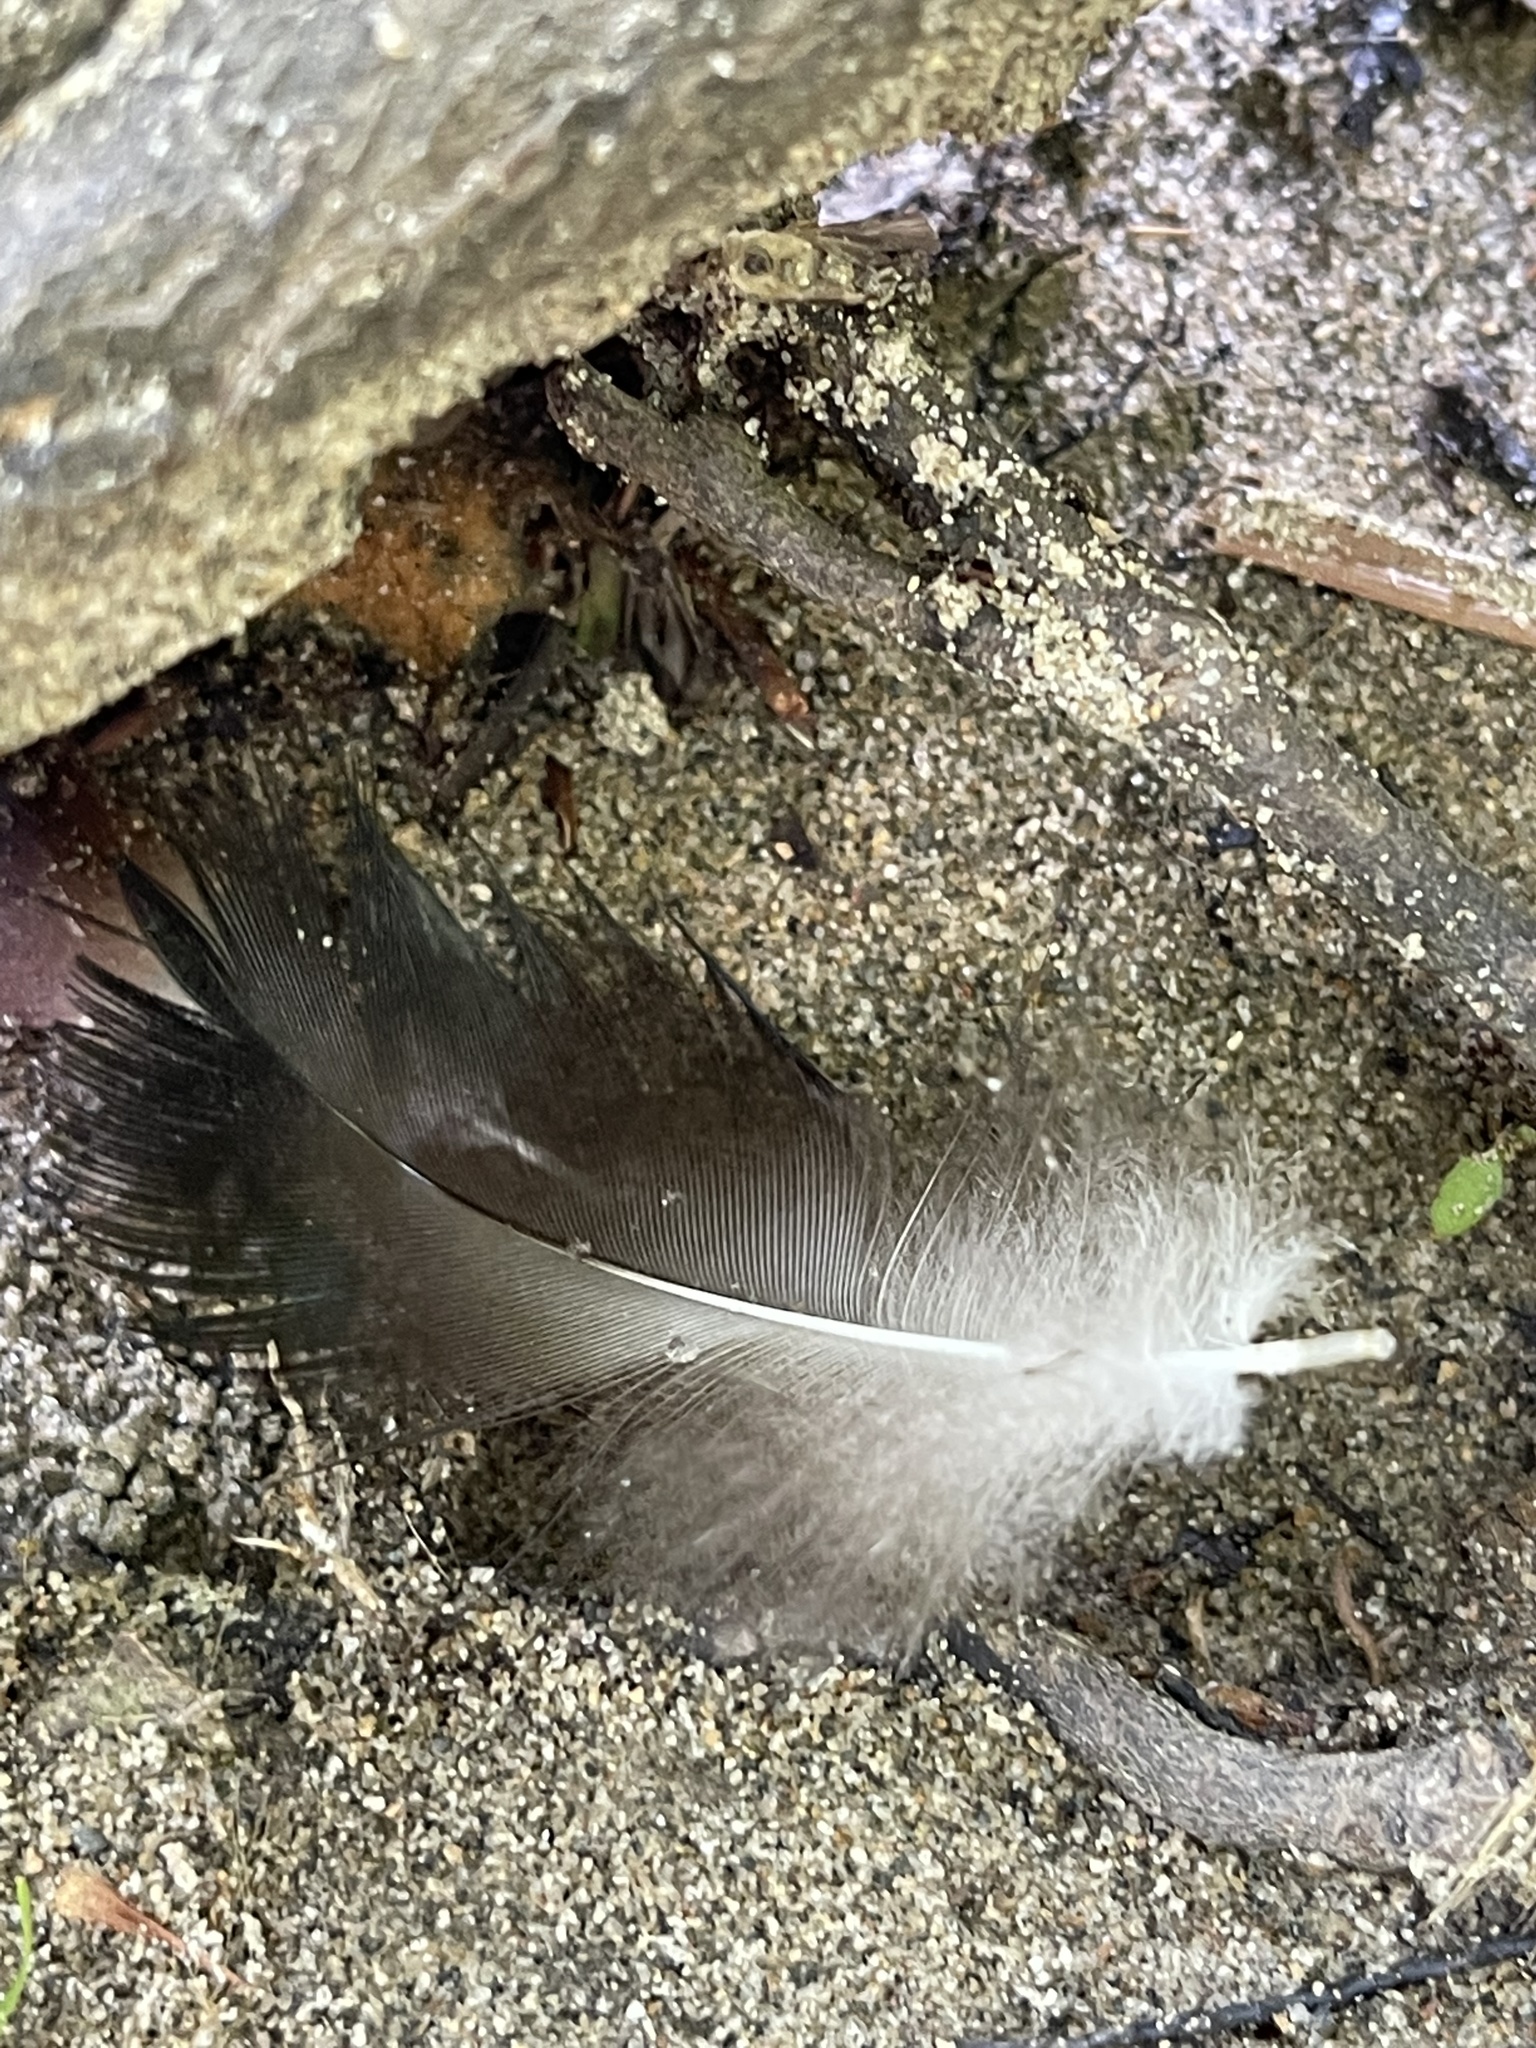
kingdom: Animalia
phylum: Chordata
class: Aves
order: Anseriformes
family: Anatidae
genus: Anas
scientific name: Anas platyrhynchos
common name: Mallard
